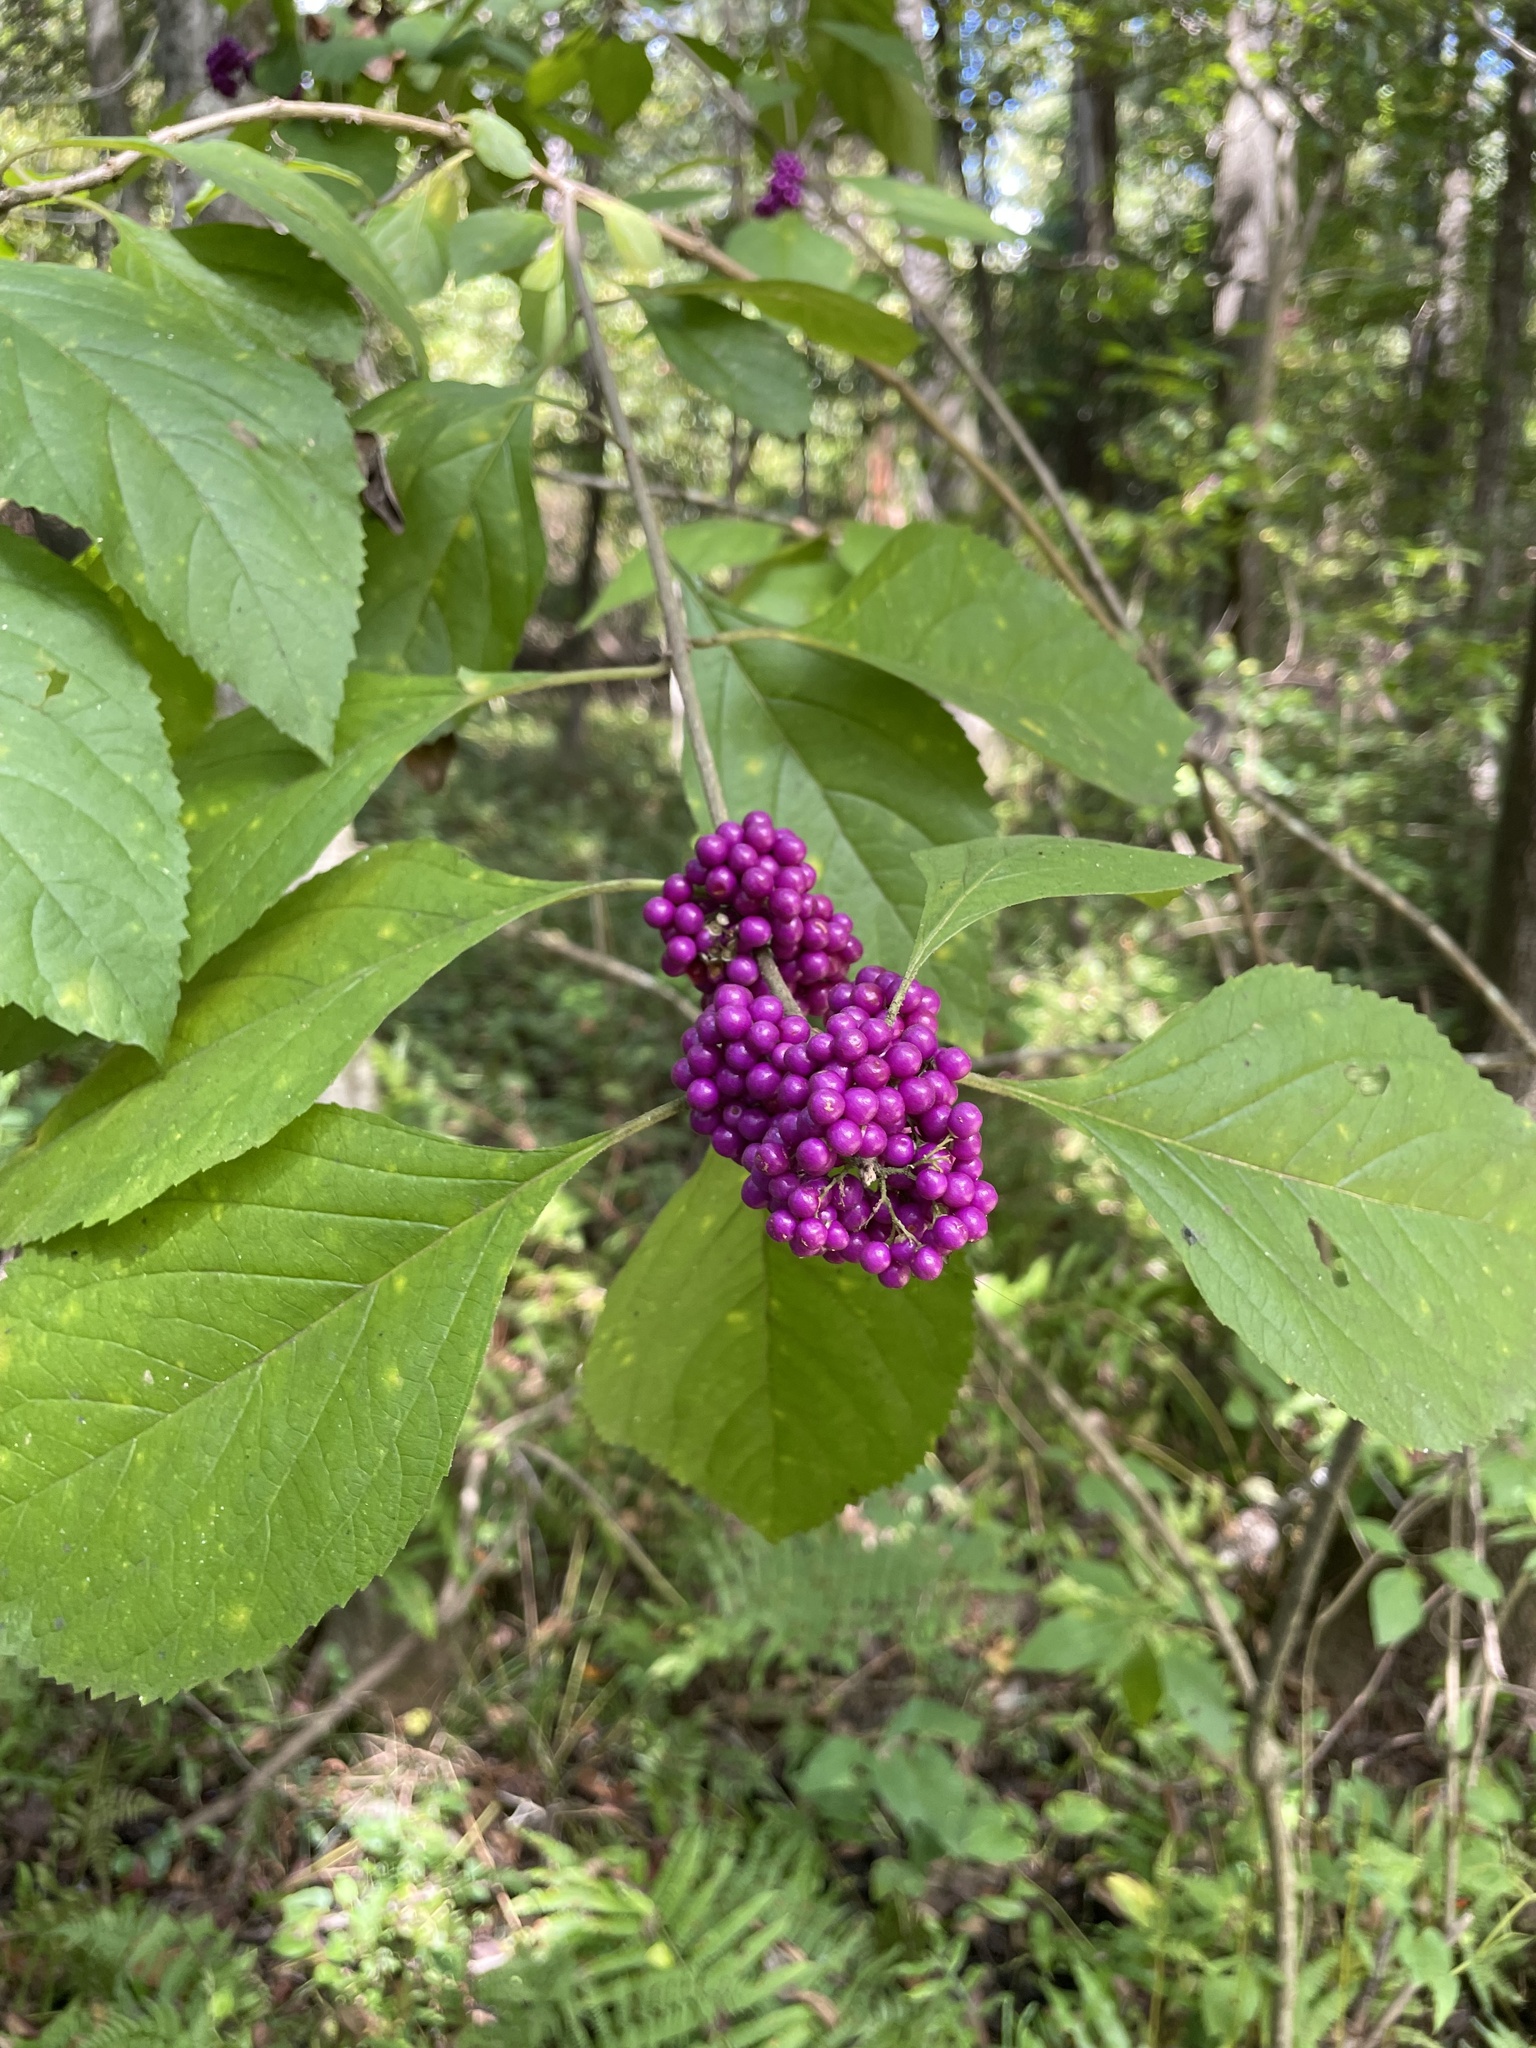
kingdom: Plantae
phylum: Tracheophyta
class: Magnoliopsida
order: Lamiales
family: Lamiaceae
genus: Callicarpa
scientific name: Callicarpa americana
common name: American beautyberry
